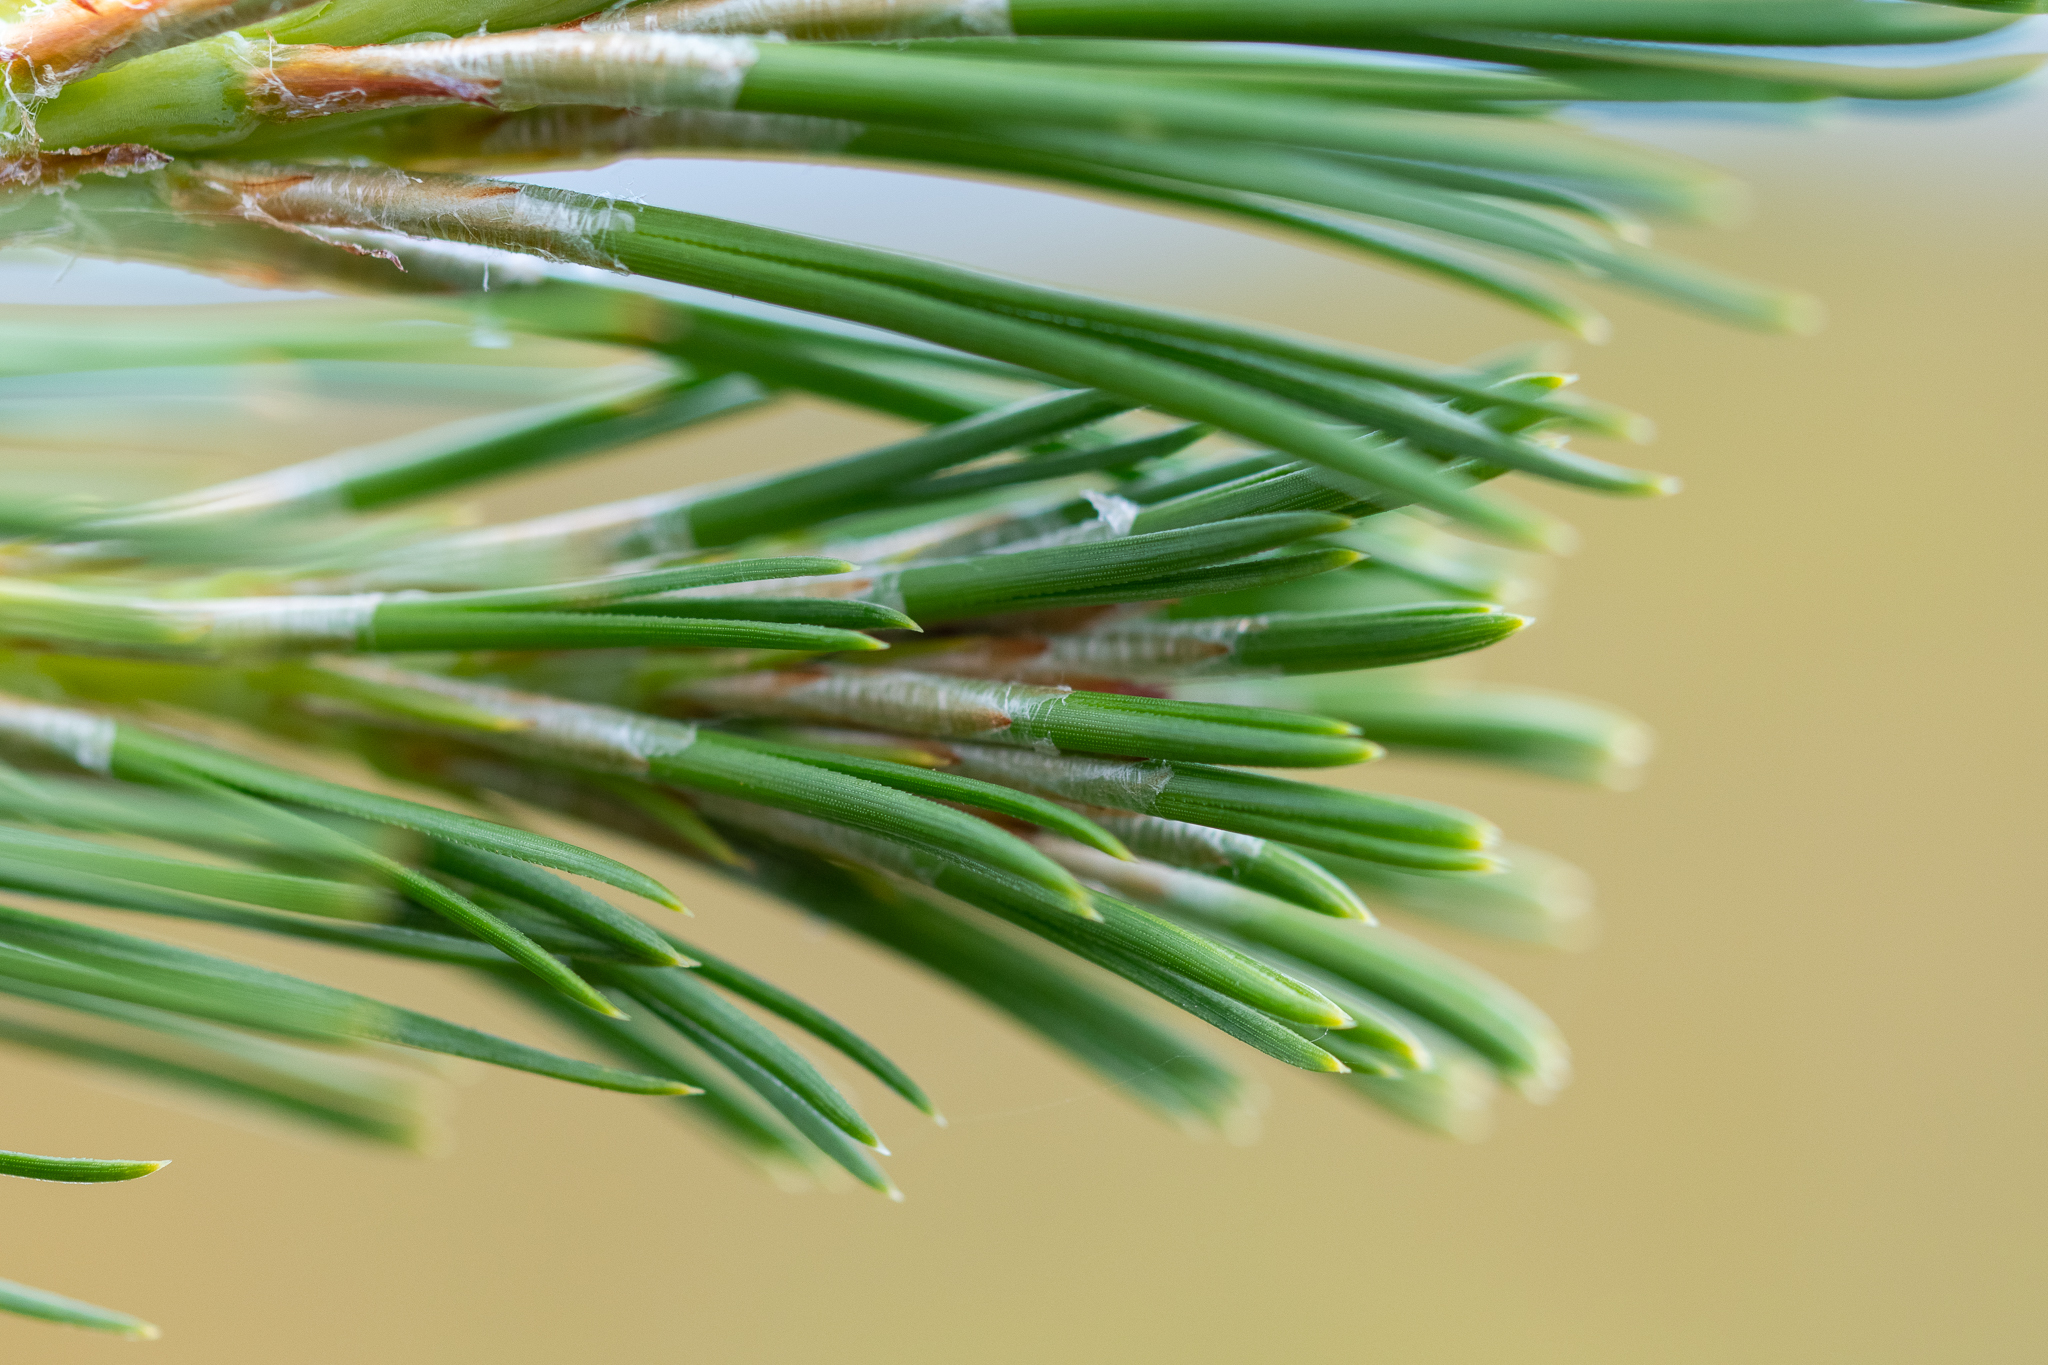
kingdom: Plantae
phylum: Tracheophyta
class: Pinopsida
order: Pinales
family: Pinaceae
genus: Pinus
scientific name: Pinus radiata
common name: Monterey pine
